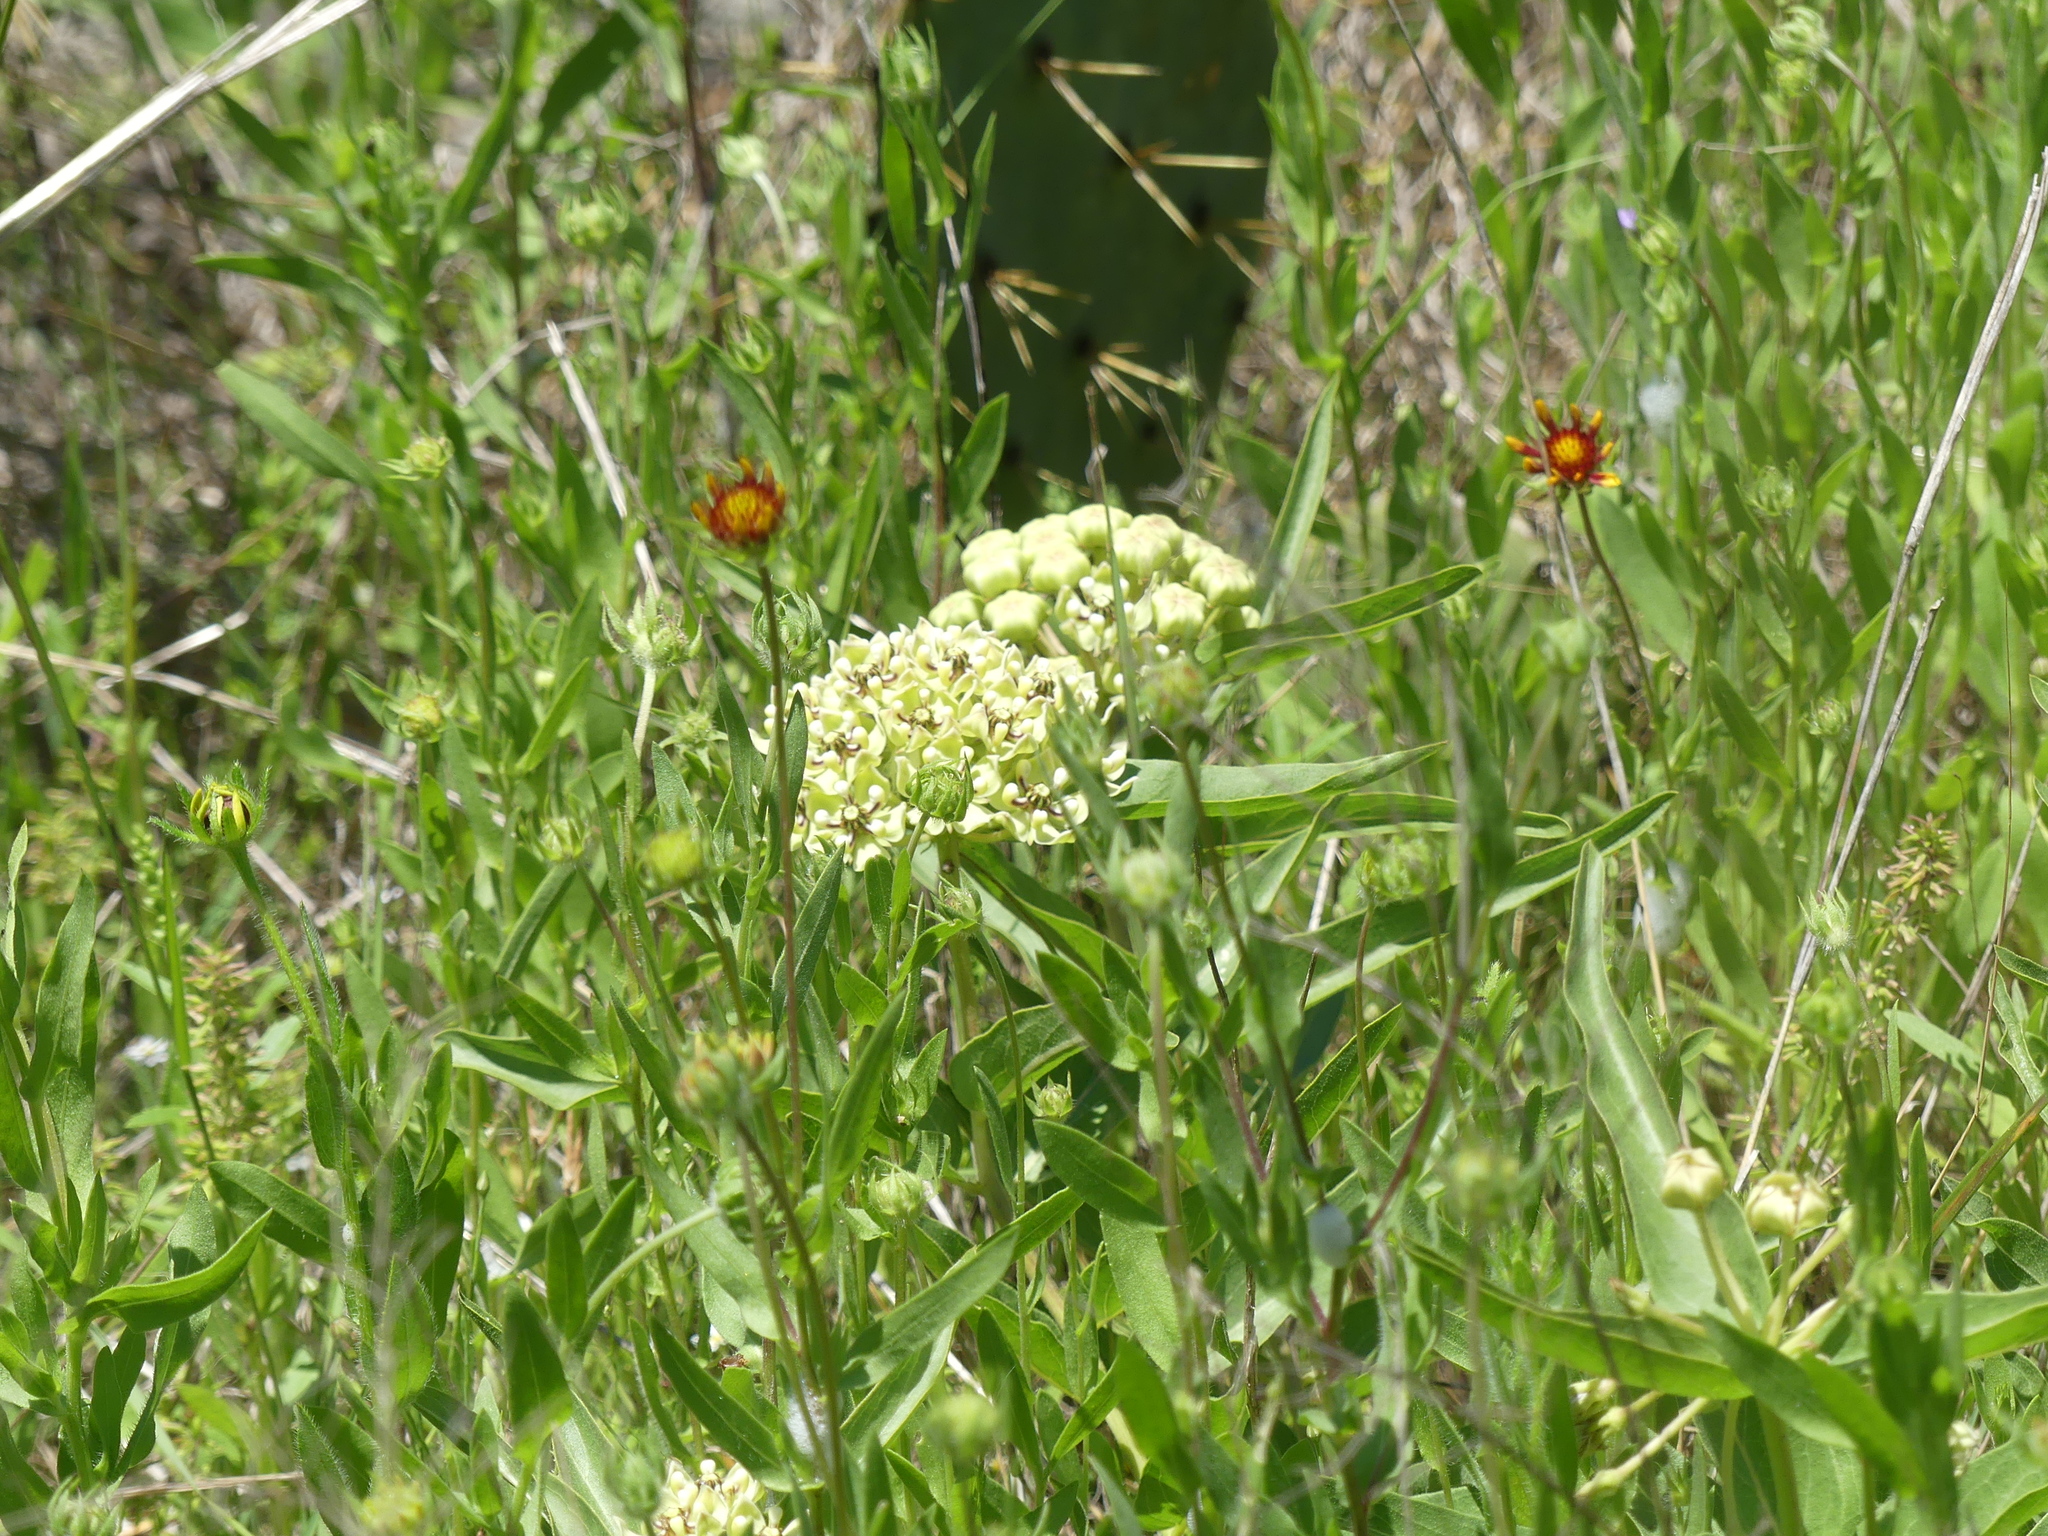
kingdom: Plantae
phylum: Tracheophyta
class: Magnoliopsida
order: Gentianales
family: Apocynaceae
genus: Asclepias
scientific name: Asclepias asperula
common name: Antelope horns
